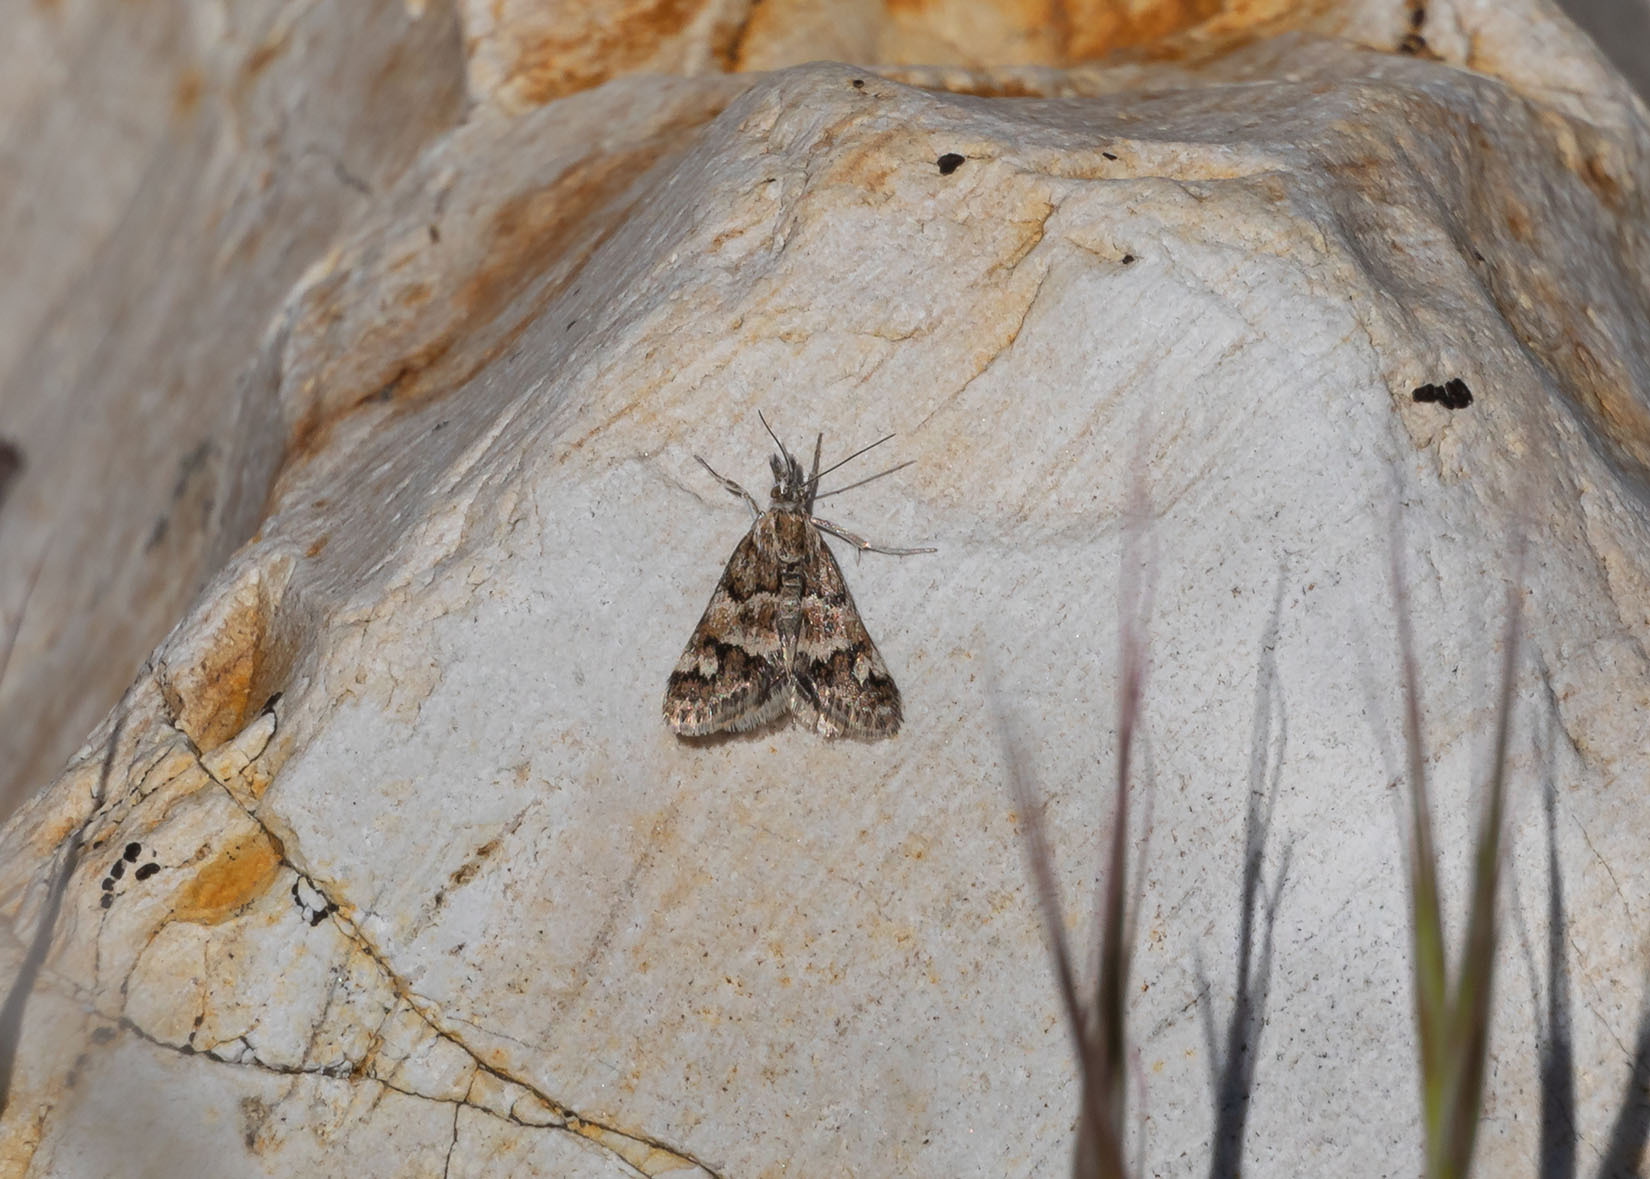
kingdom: Animalia
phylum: Arthropoda
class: Insecta
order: Lepidoptera
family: Crambidae
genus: Psammobotys
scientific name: Psammobotys fordi
